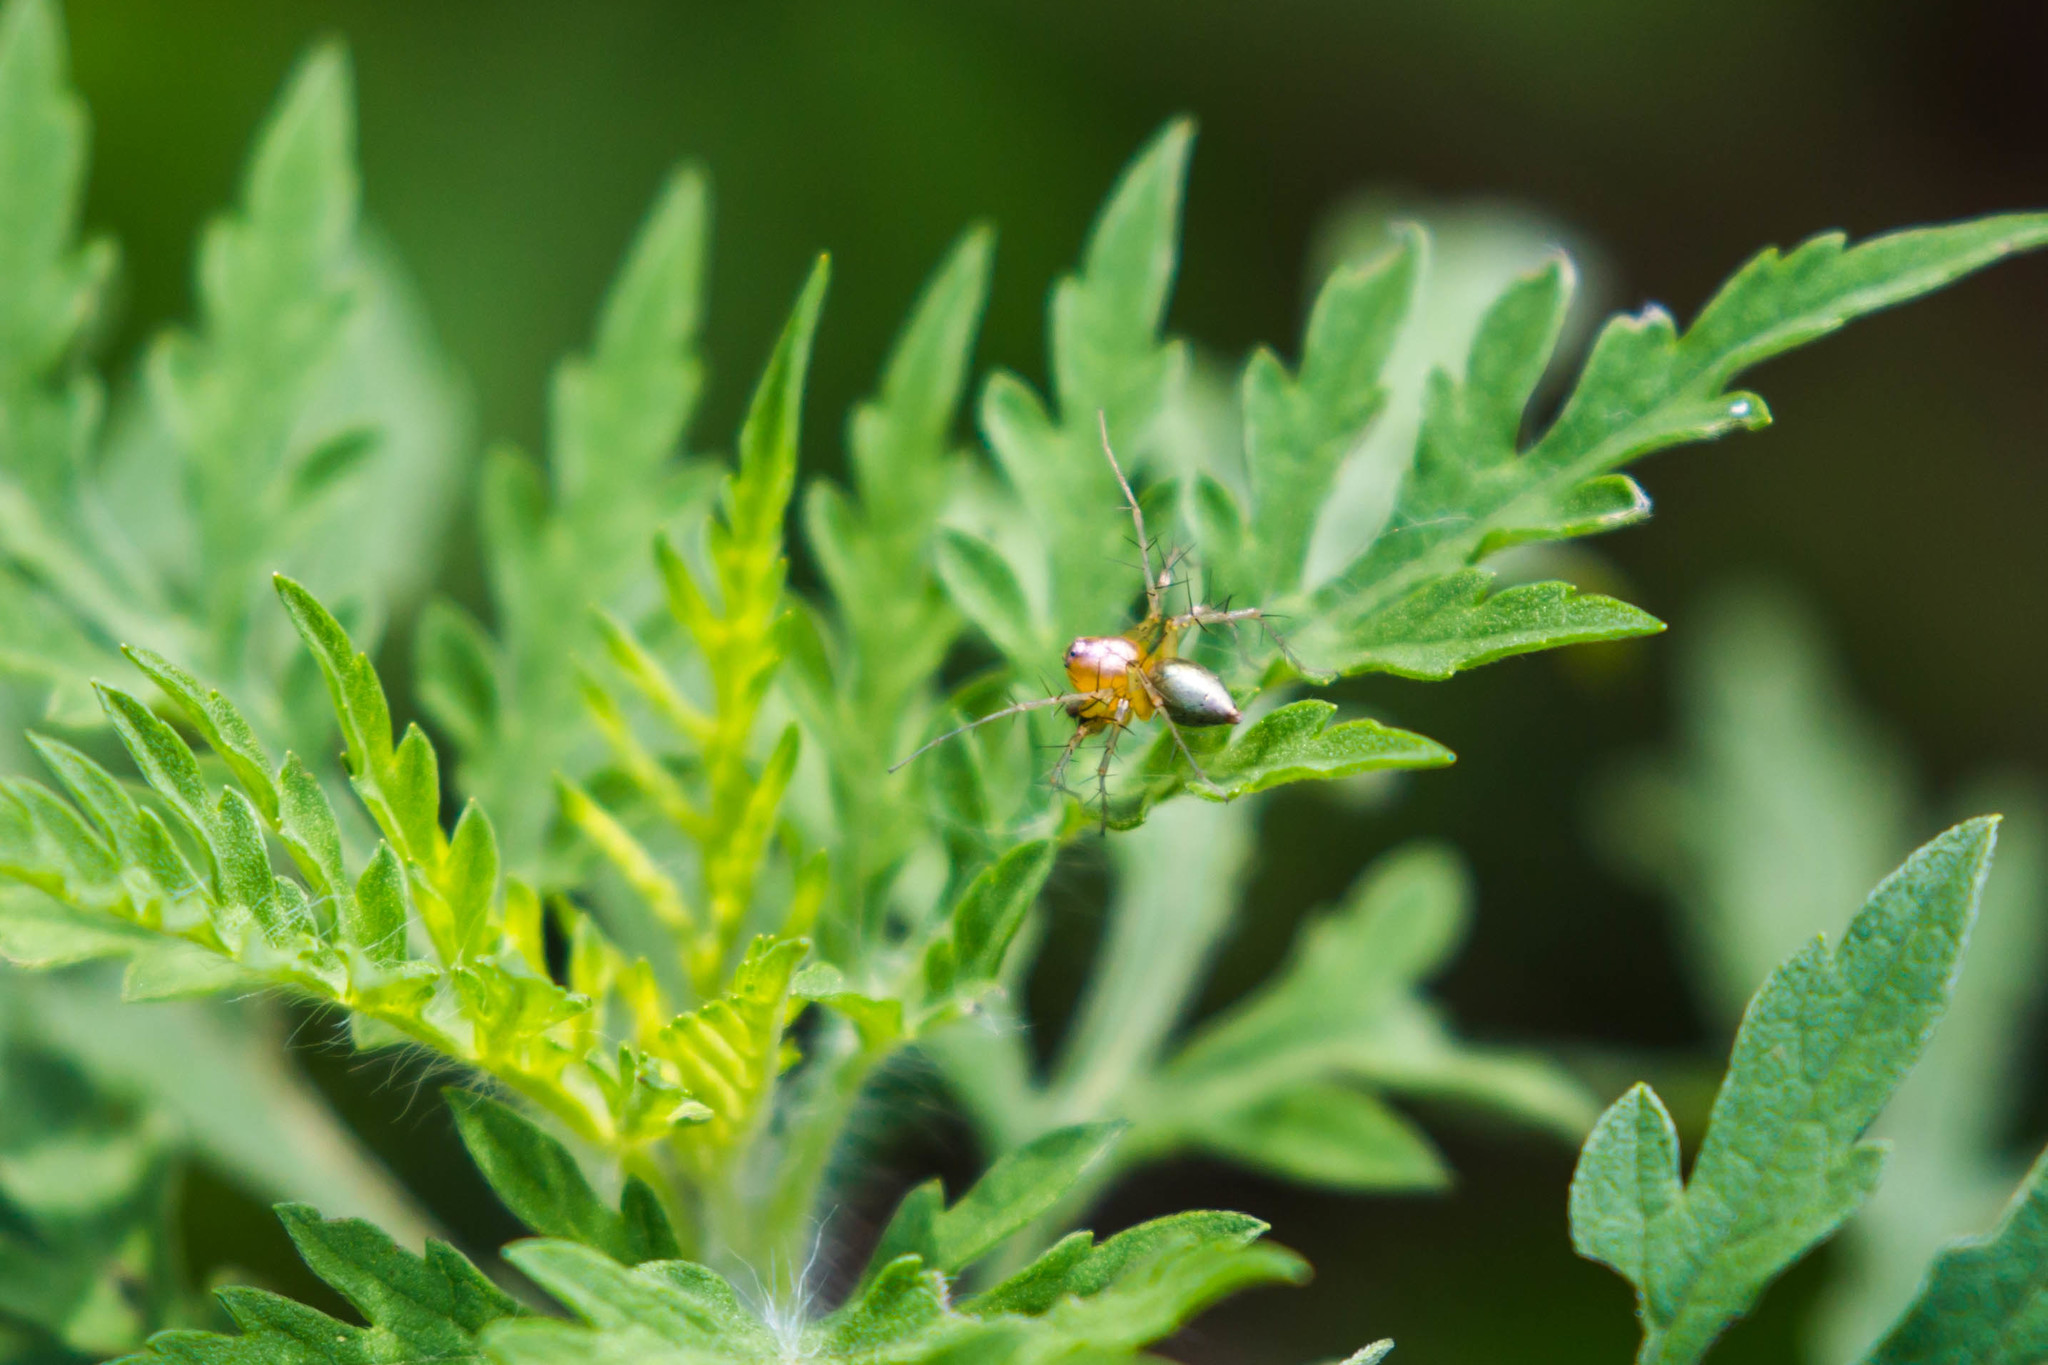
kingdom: Animalia
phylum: Arthropoda
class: Arachnida
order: Araneae
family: Oxyopidae
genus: Oxyopes
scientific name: Oxyopes salticus
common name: Lynx spiders
